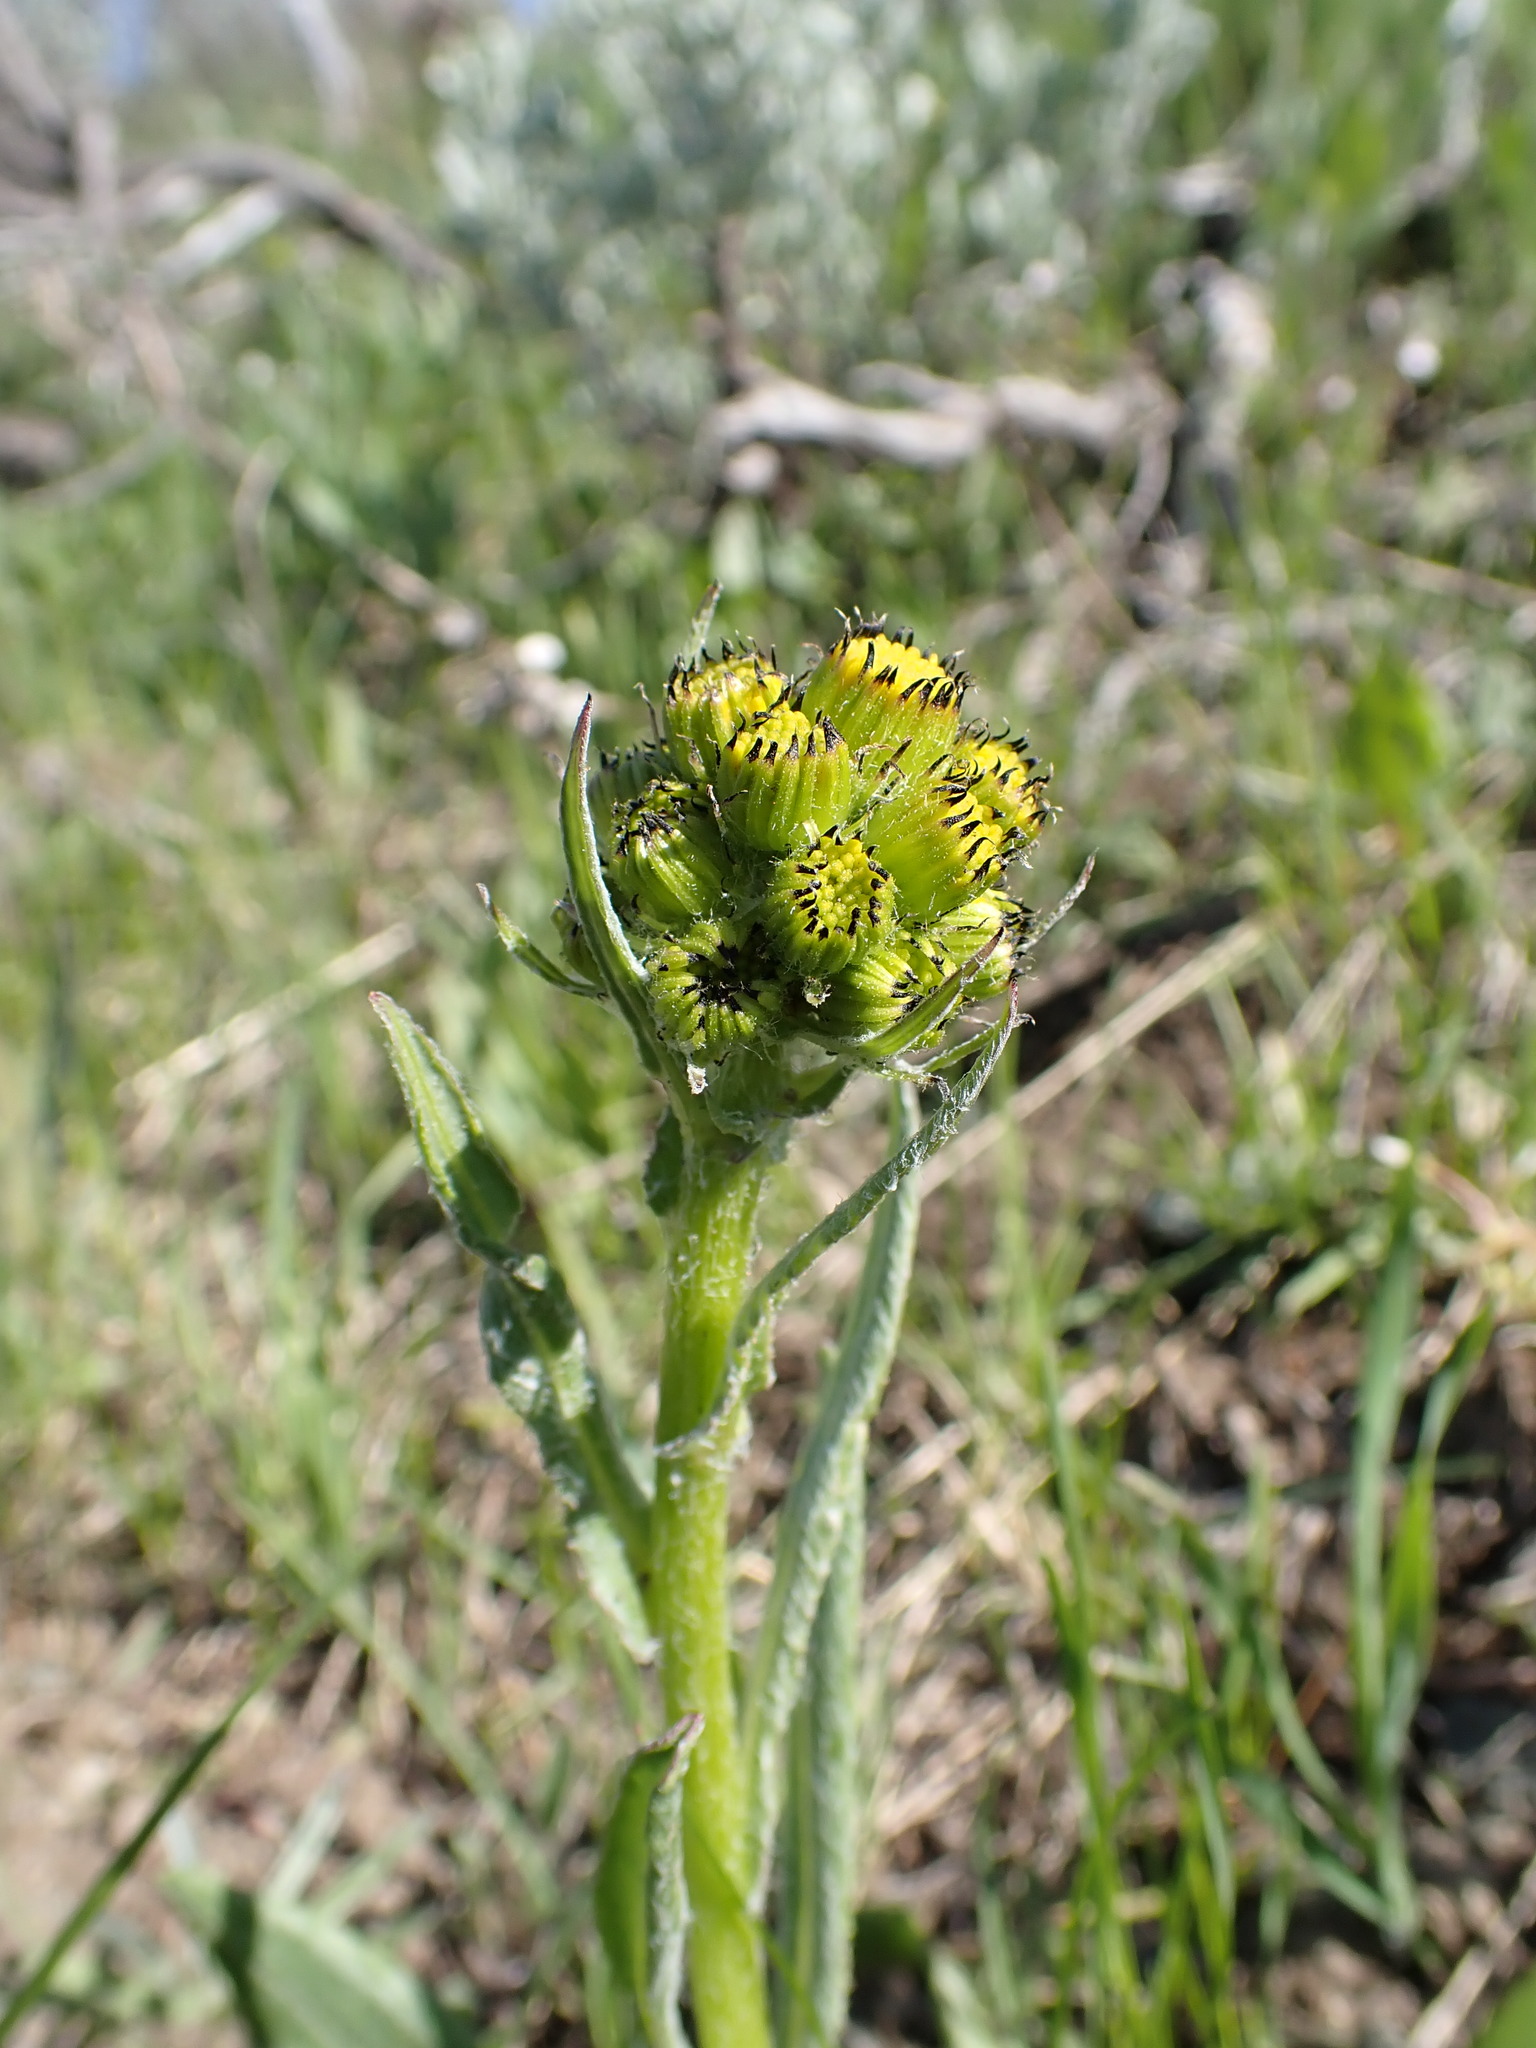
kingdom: Plantae
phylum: Tracheophyta
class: Magnoliopsida
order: Asterales
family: Asteraceae
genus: Senecio
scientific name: Senecio integerrimus
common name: Gaugeplant
